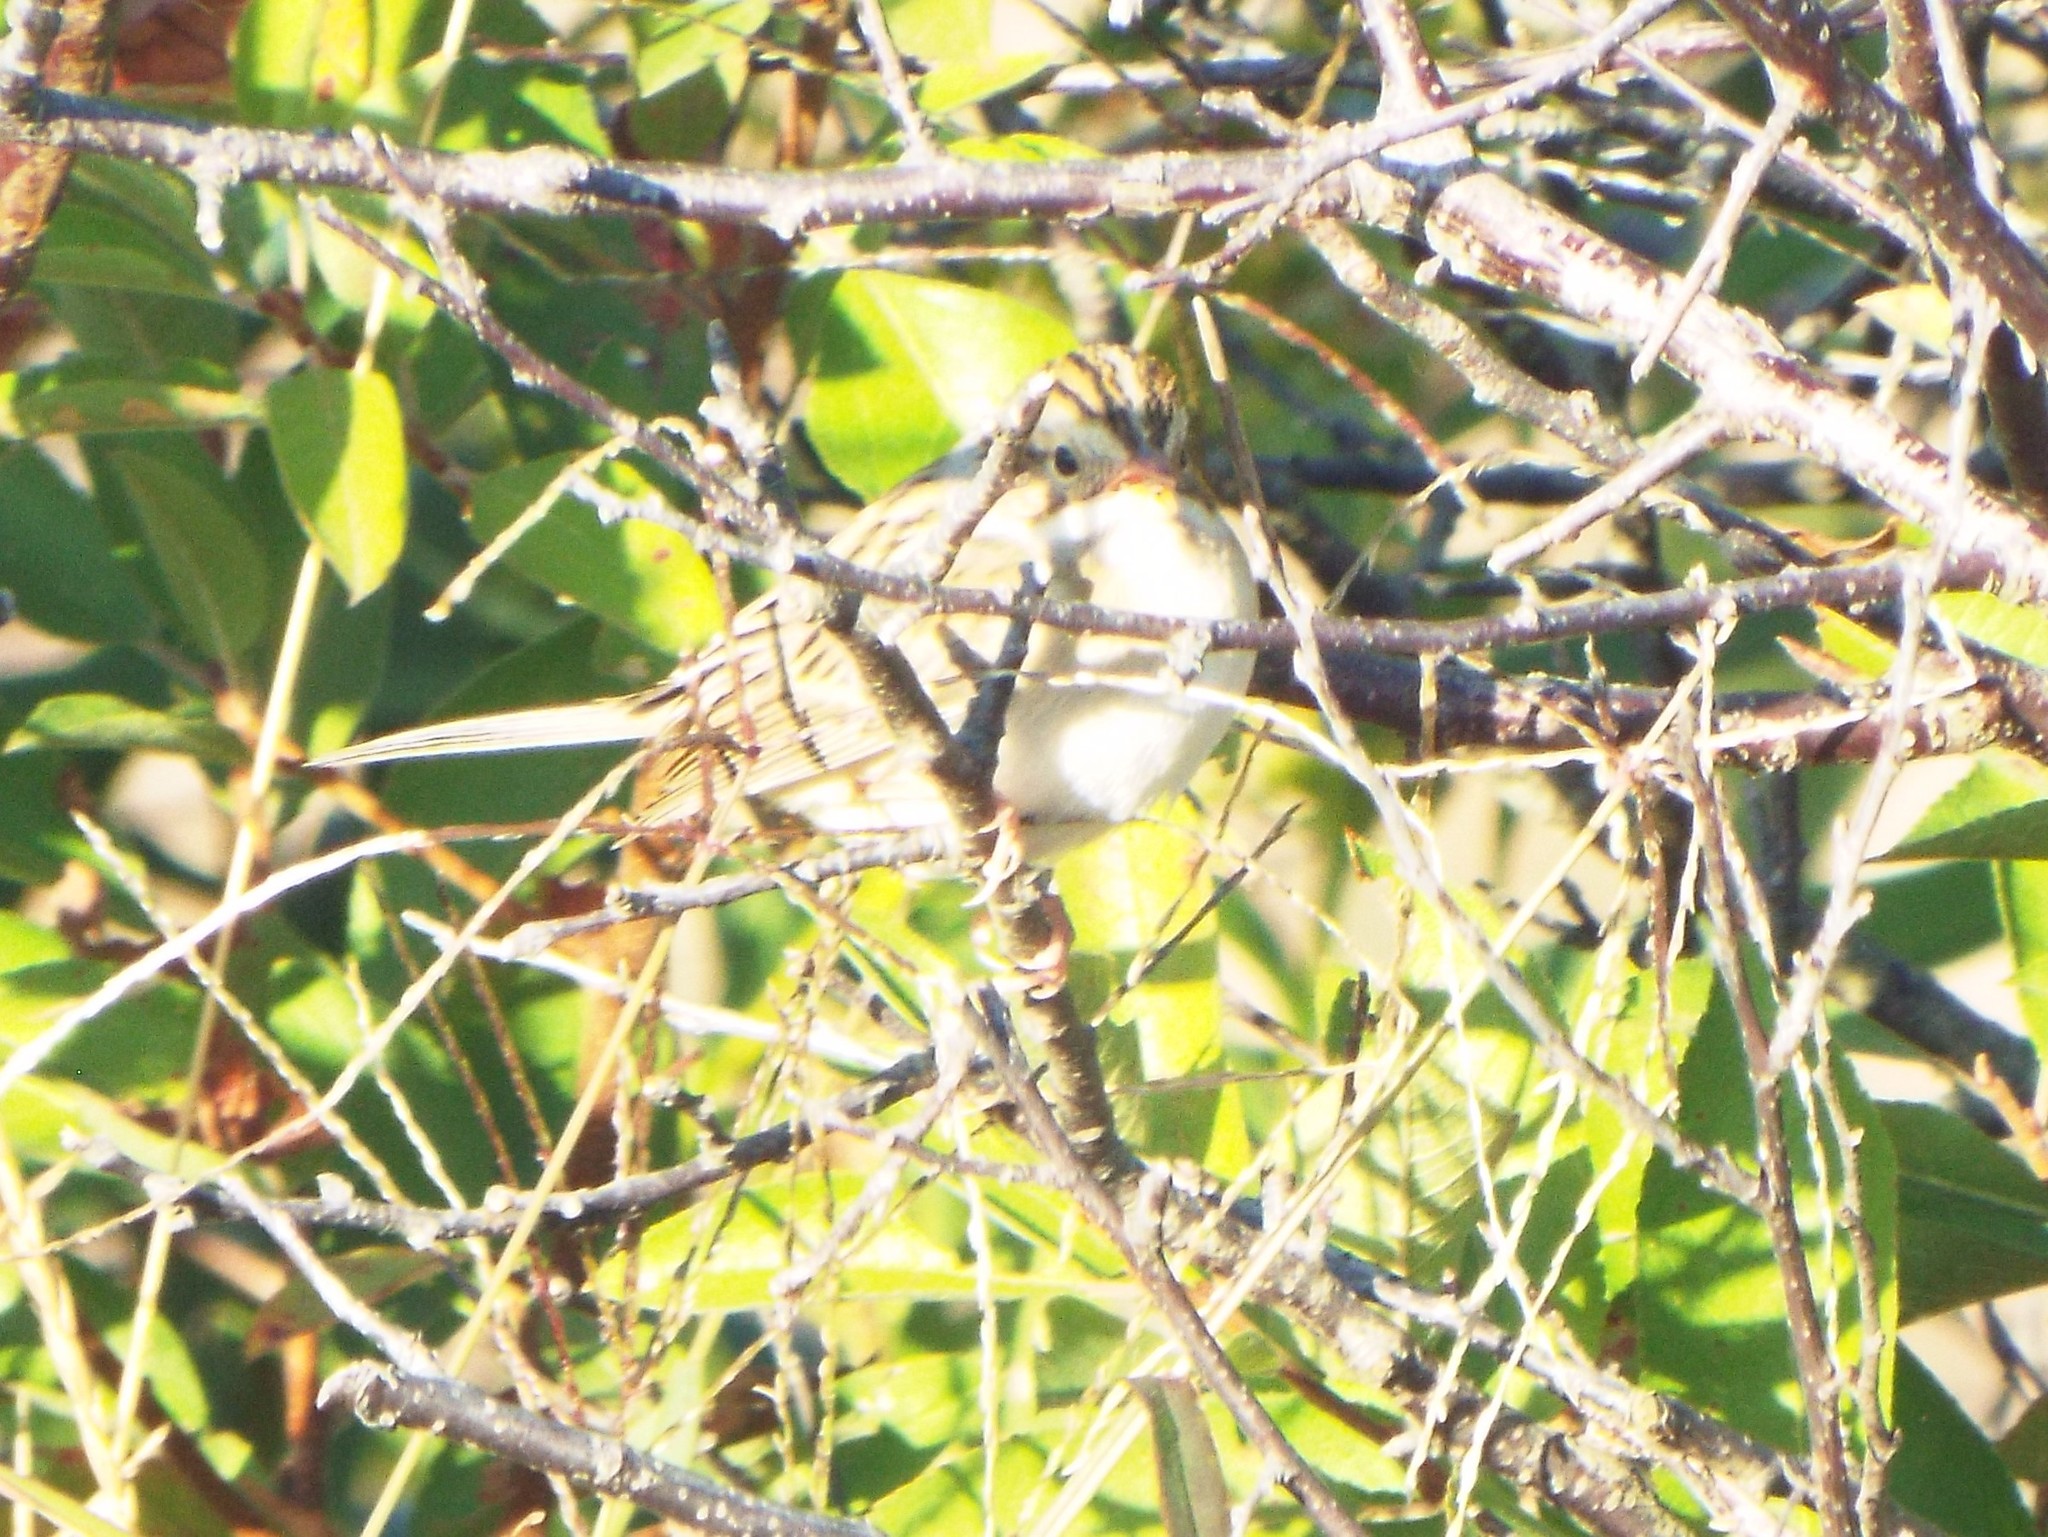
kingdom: Animalia
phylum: Chordata
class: Aves
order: Passeriformes
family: Passerellidae
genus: Spizella
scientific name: Spizella pallida
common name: Clay-colored sparrow
